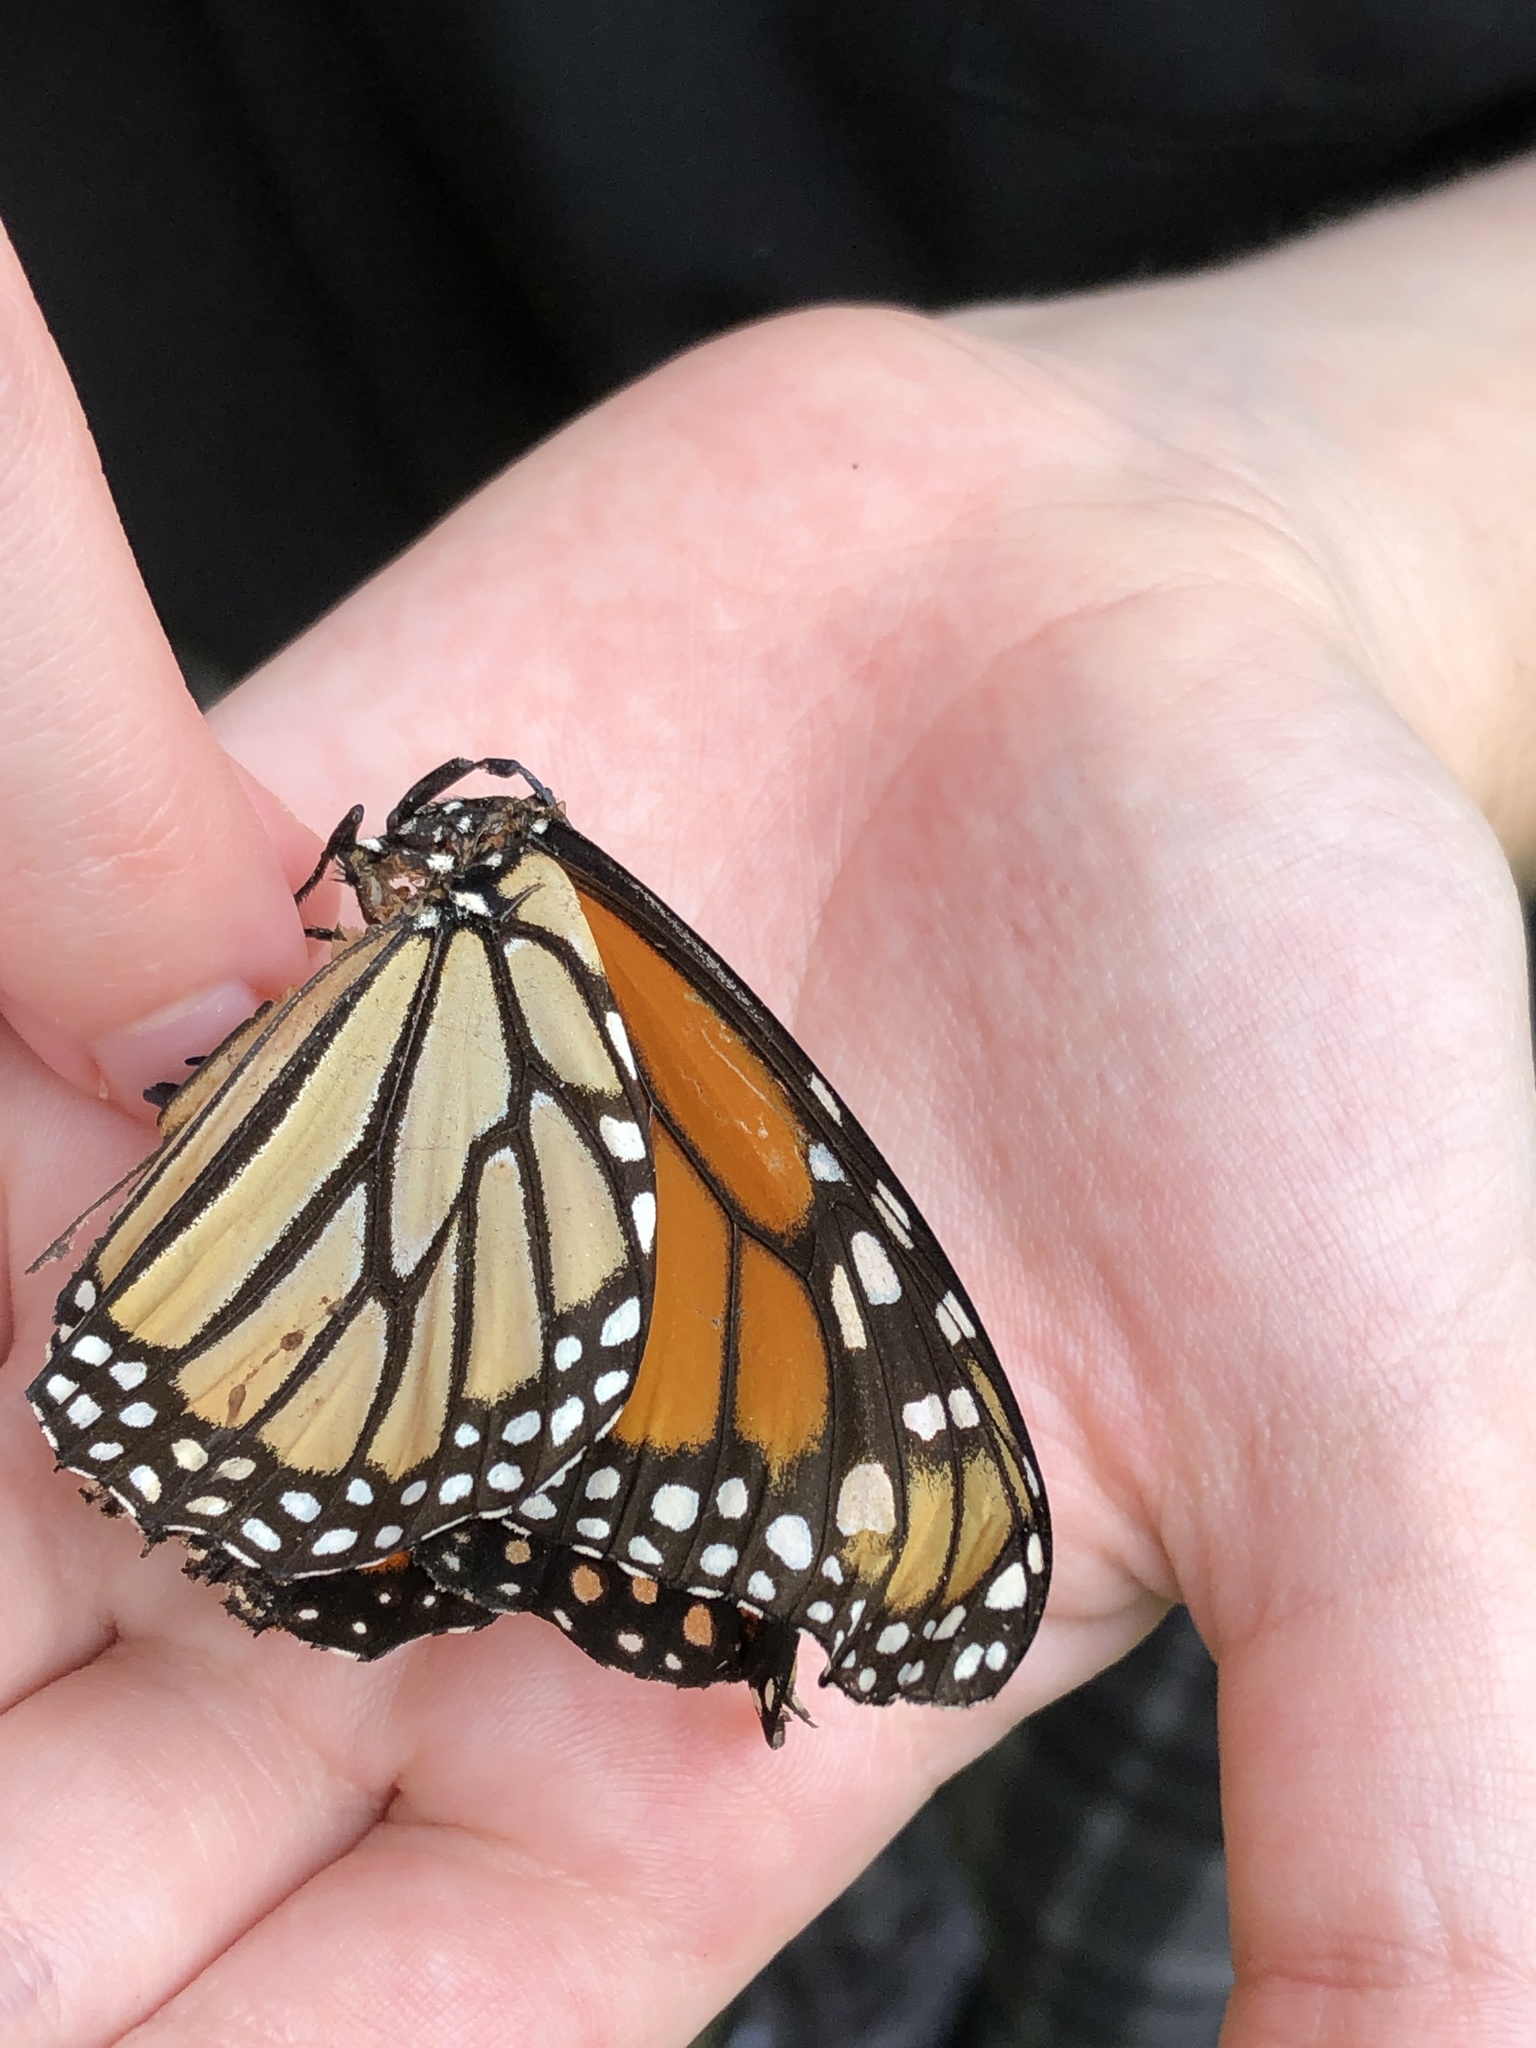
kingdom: Animalia
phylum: Arthropoda
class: Insecta
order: Lepidoptera
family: Nymphalidae
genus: Danaus
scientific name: Danaus plexippus
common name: Monarch
